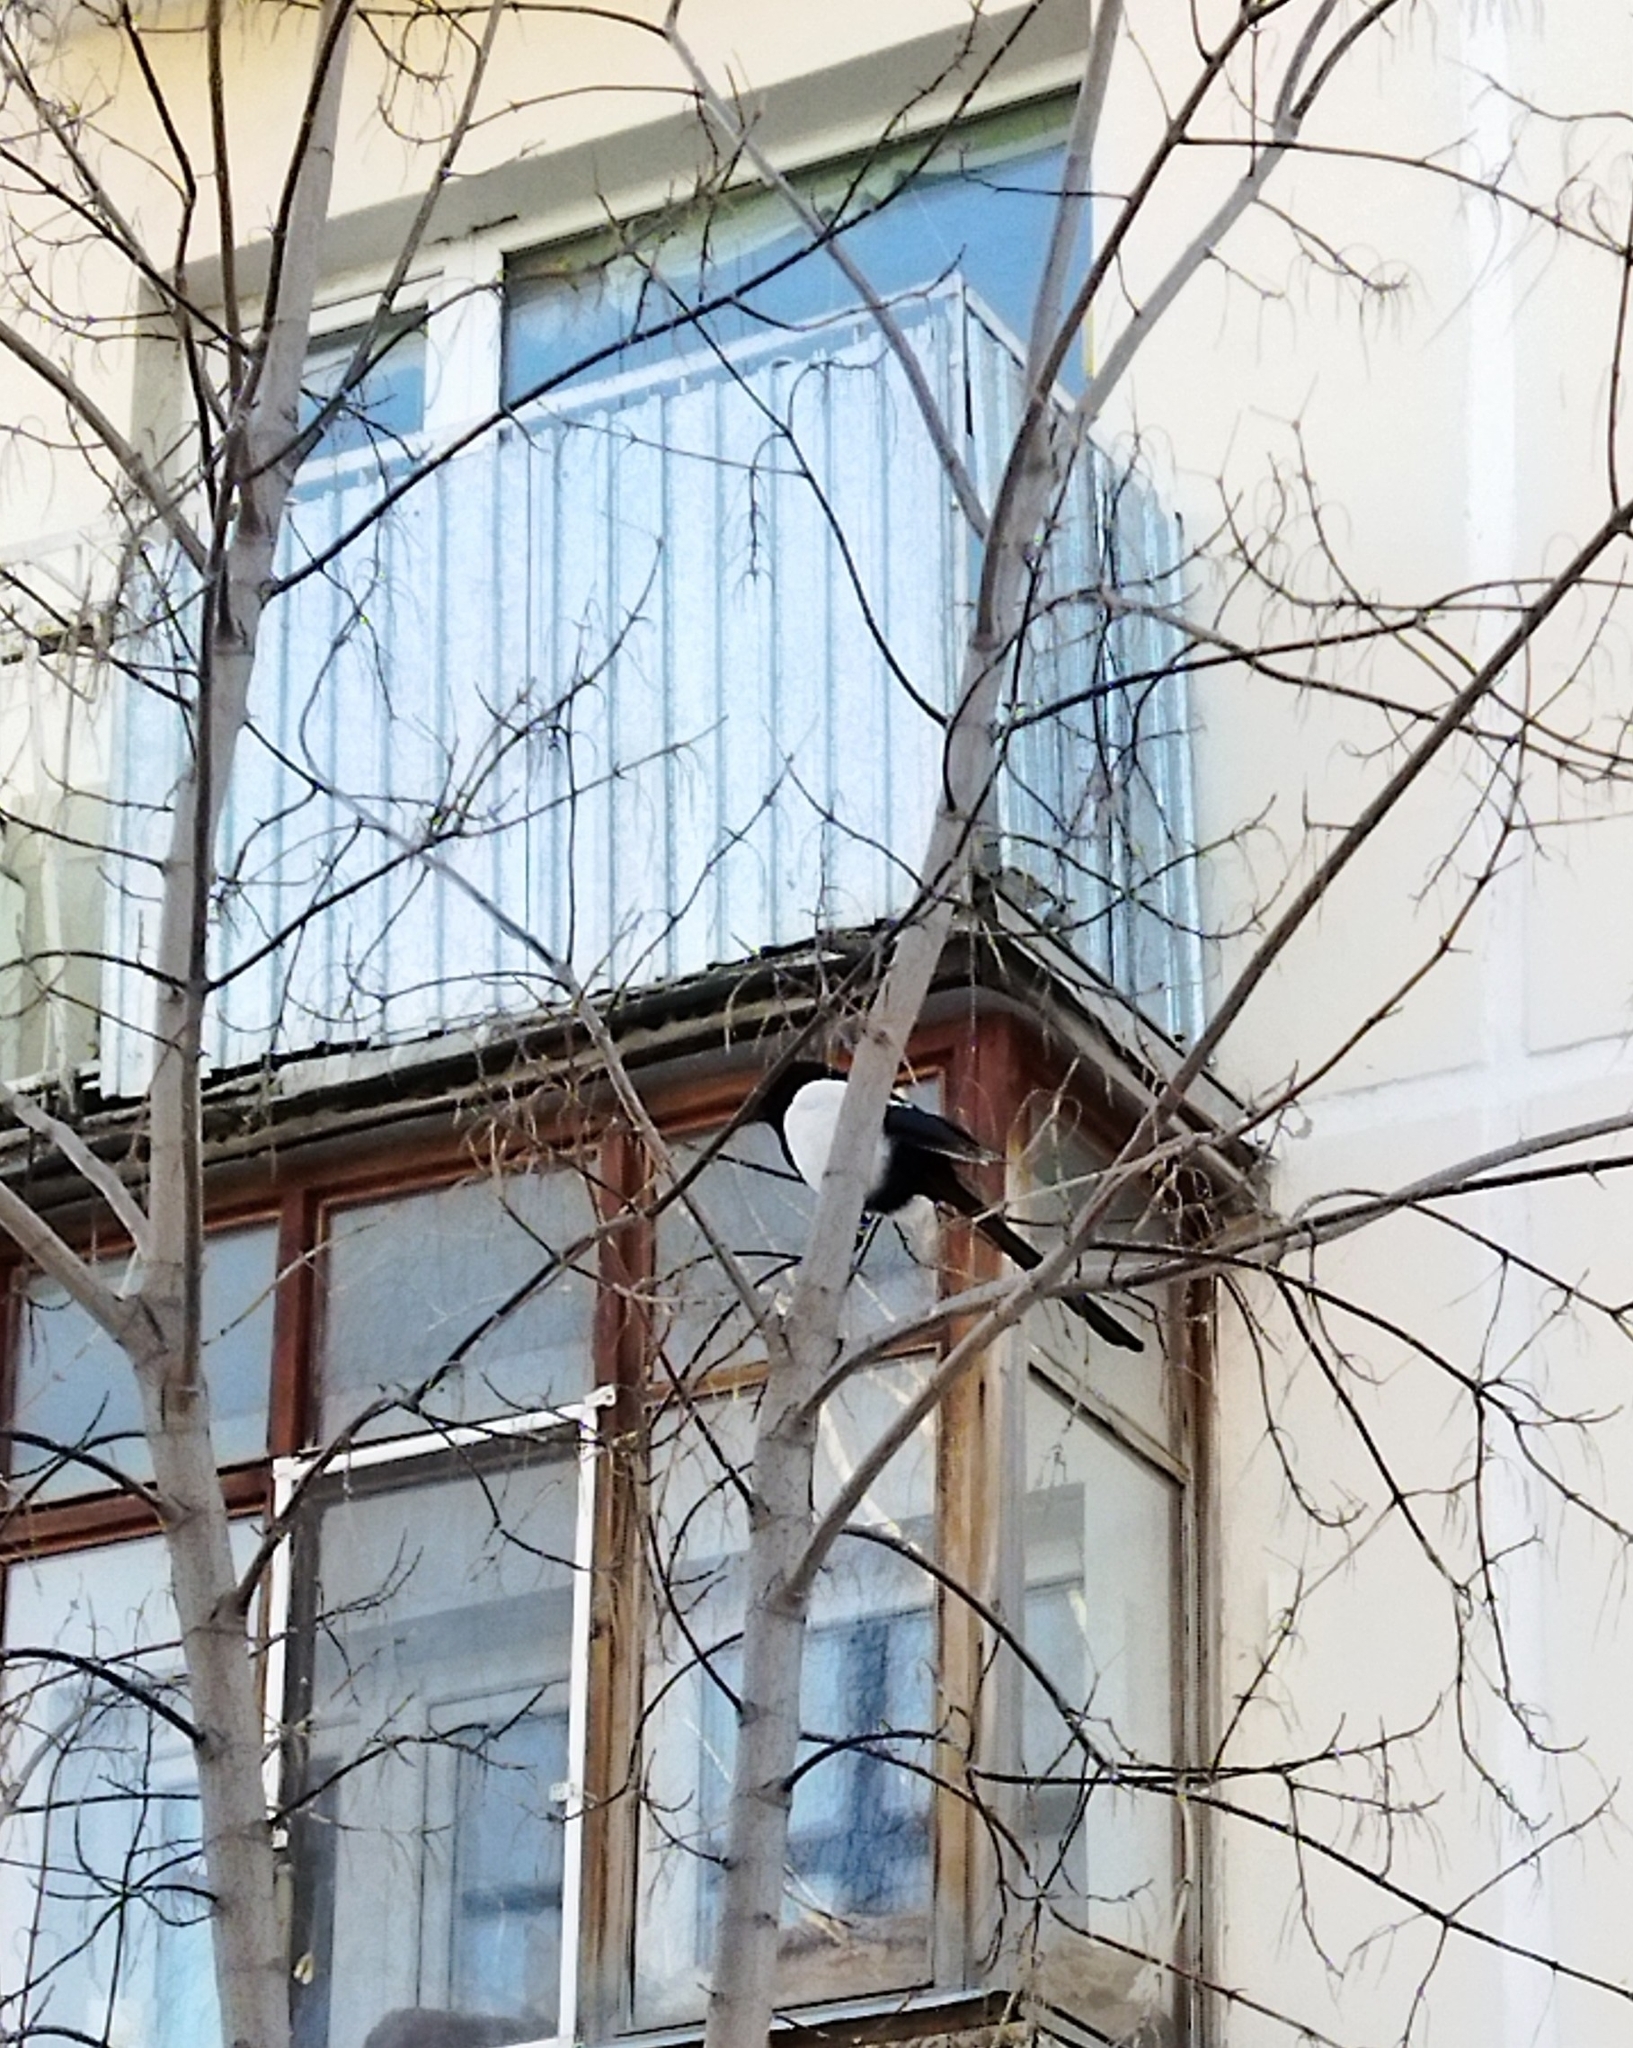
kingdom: Animalia
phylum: Chordata
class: Aves
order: Passeriformes
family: Corvidae
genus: Pica
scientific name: Pica pica
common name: Eurasian magpie
